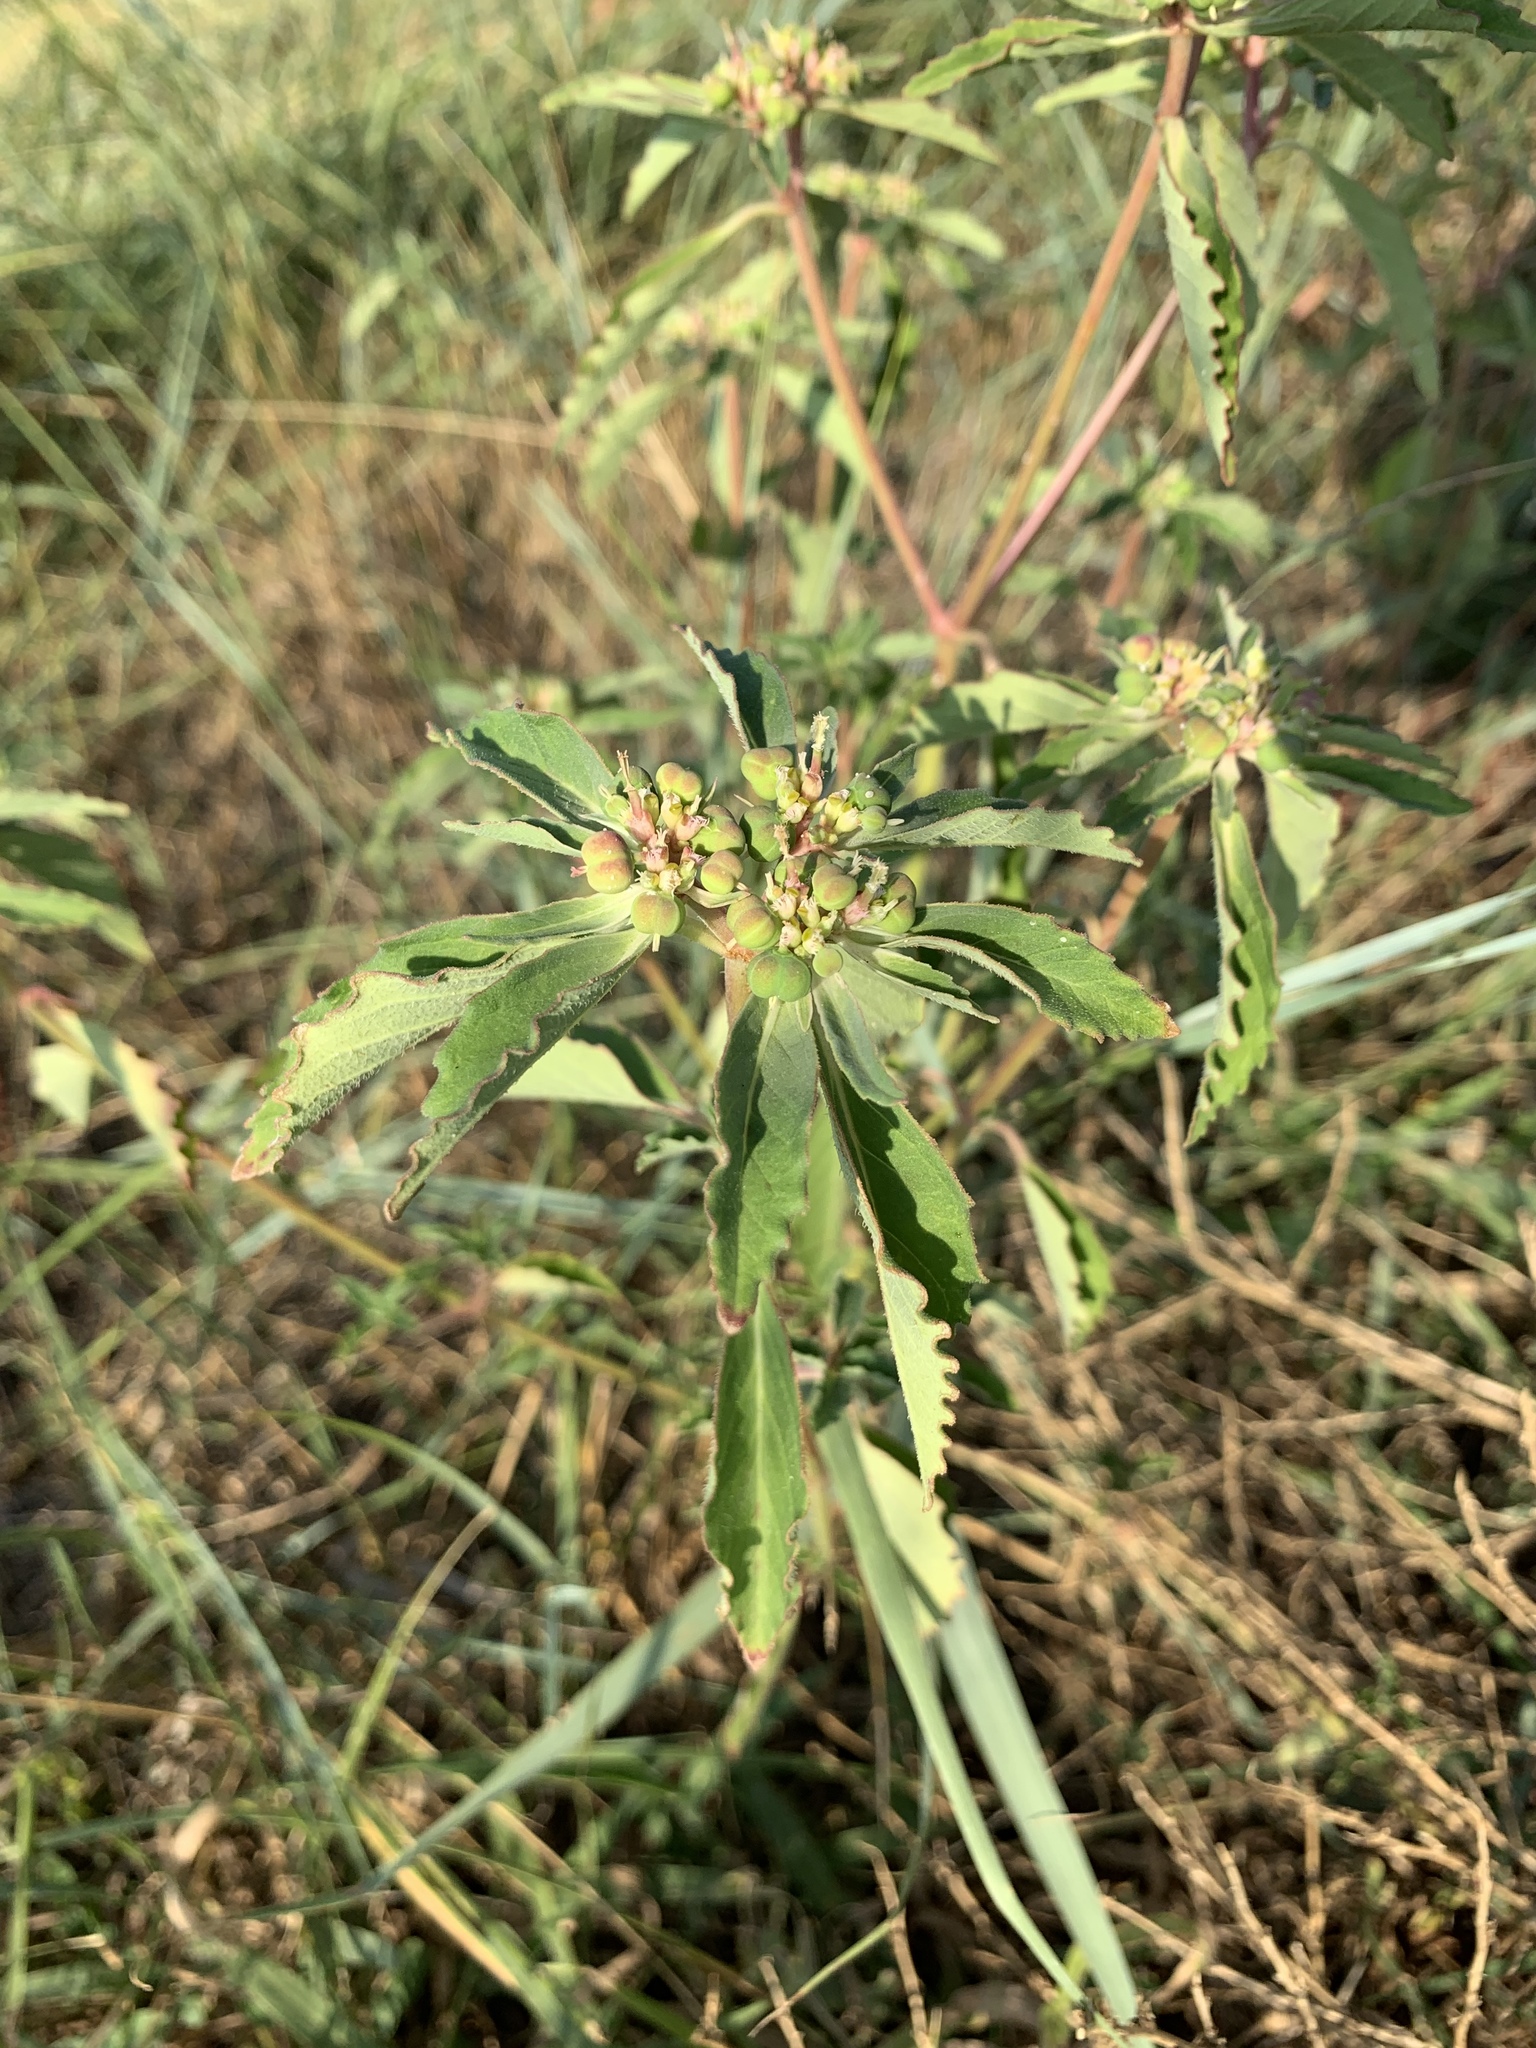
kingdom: Plantae
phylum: Tracheophyta
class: Magnoliopsida
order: Malpighiales
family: Euphorbiaceae
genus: Euphorbia
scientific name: Euphorbia davidii
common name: David's spurge
